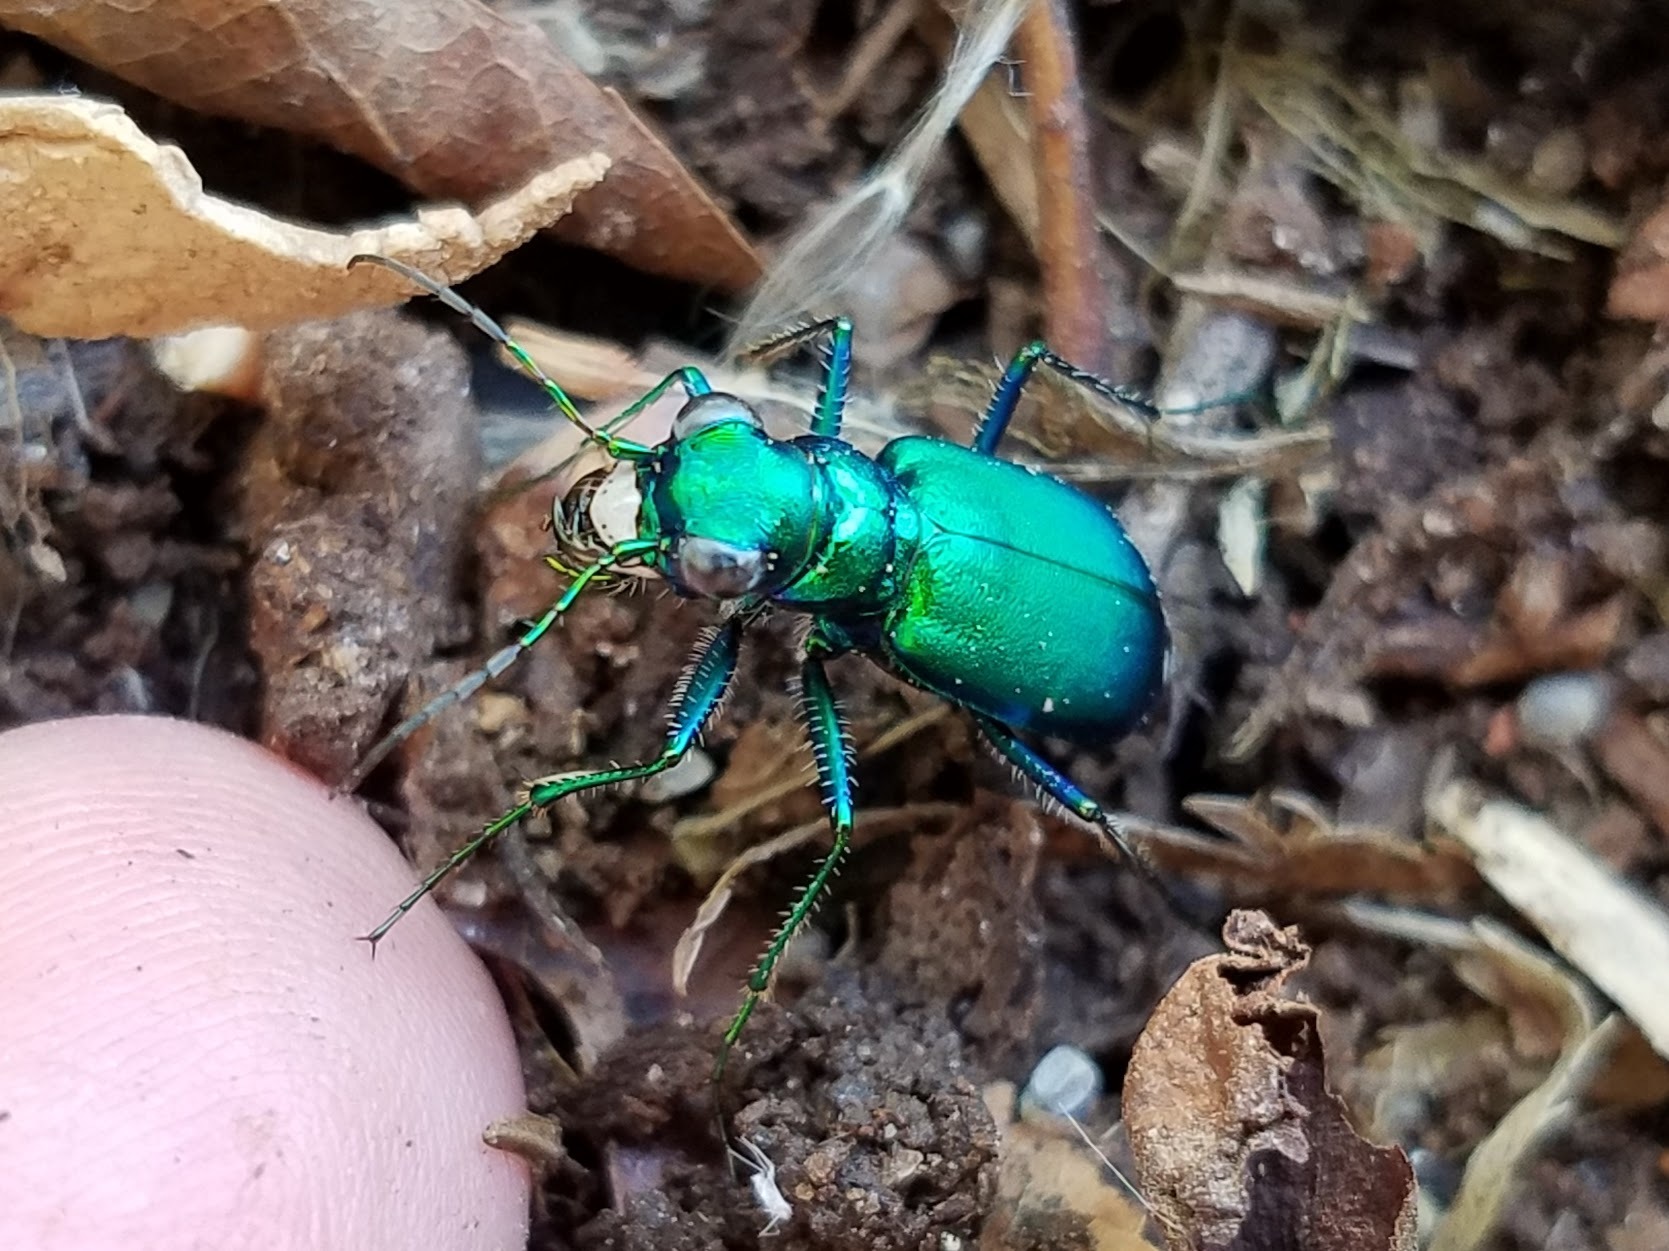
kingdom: Animalia
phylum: Arthropoda
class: Insecta
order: Coleoptera
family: Carabidae
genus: Cicindela
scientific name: Cicindela sexguttata
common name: Six-spotted tiger beetle
